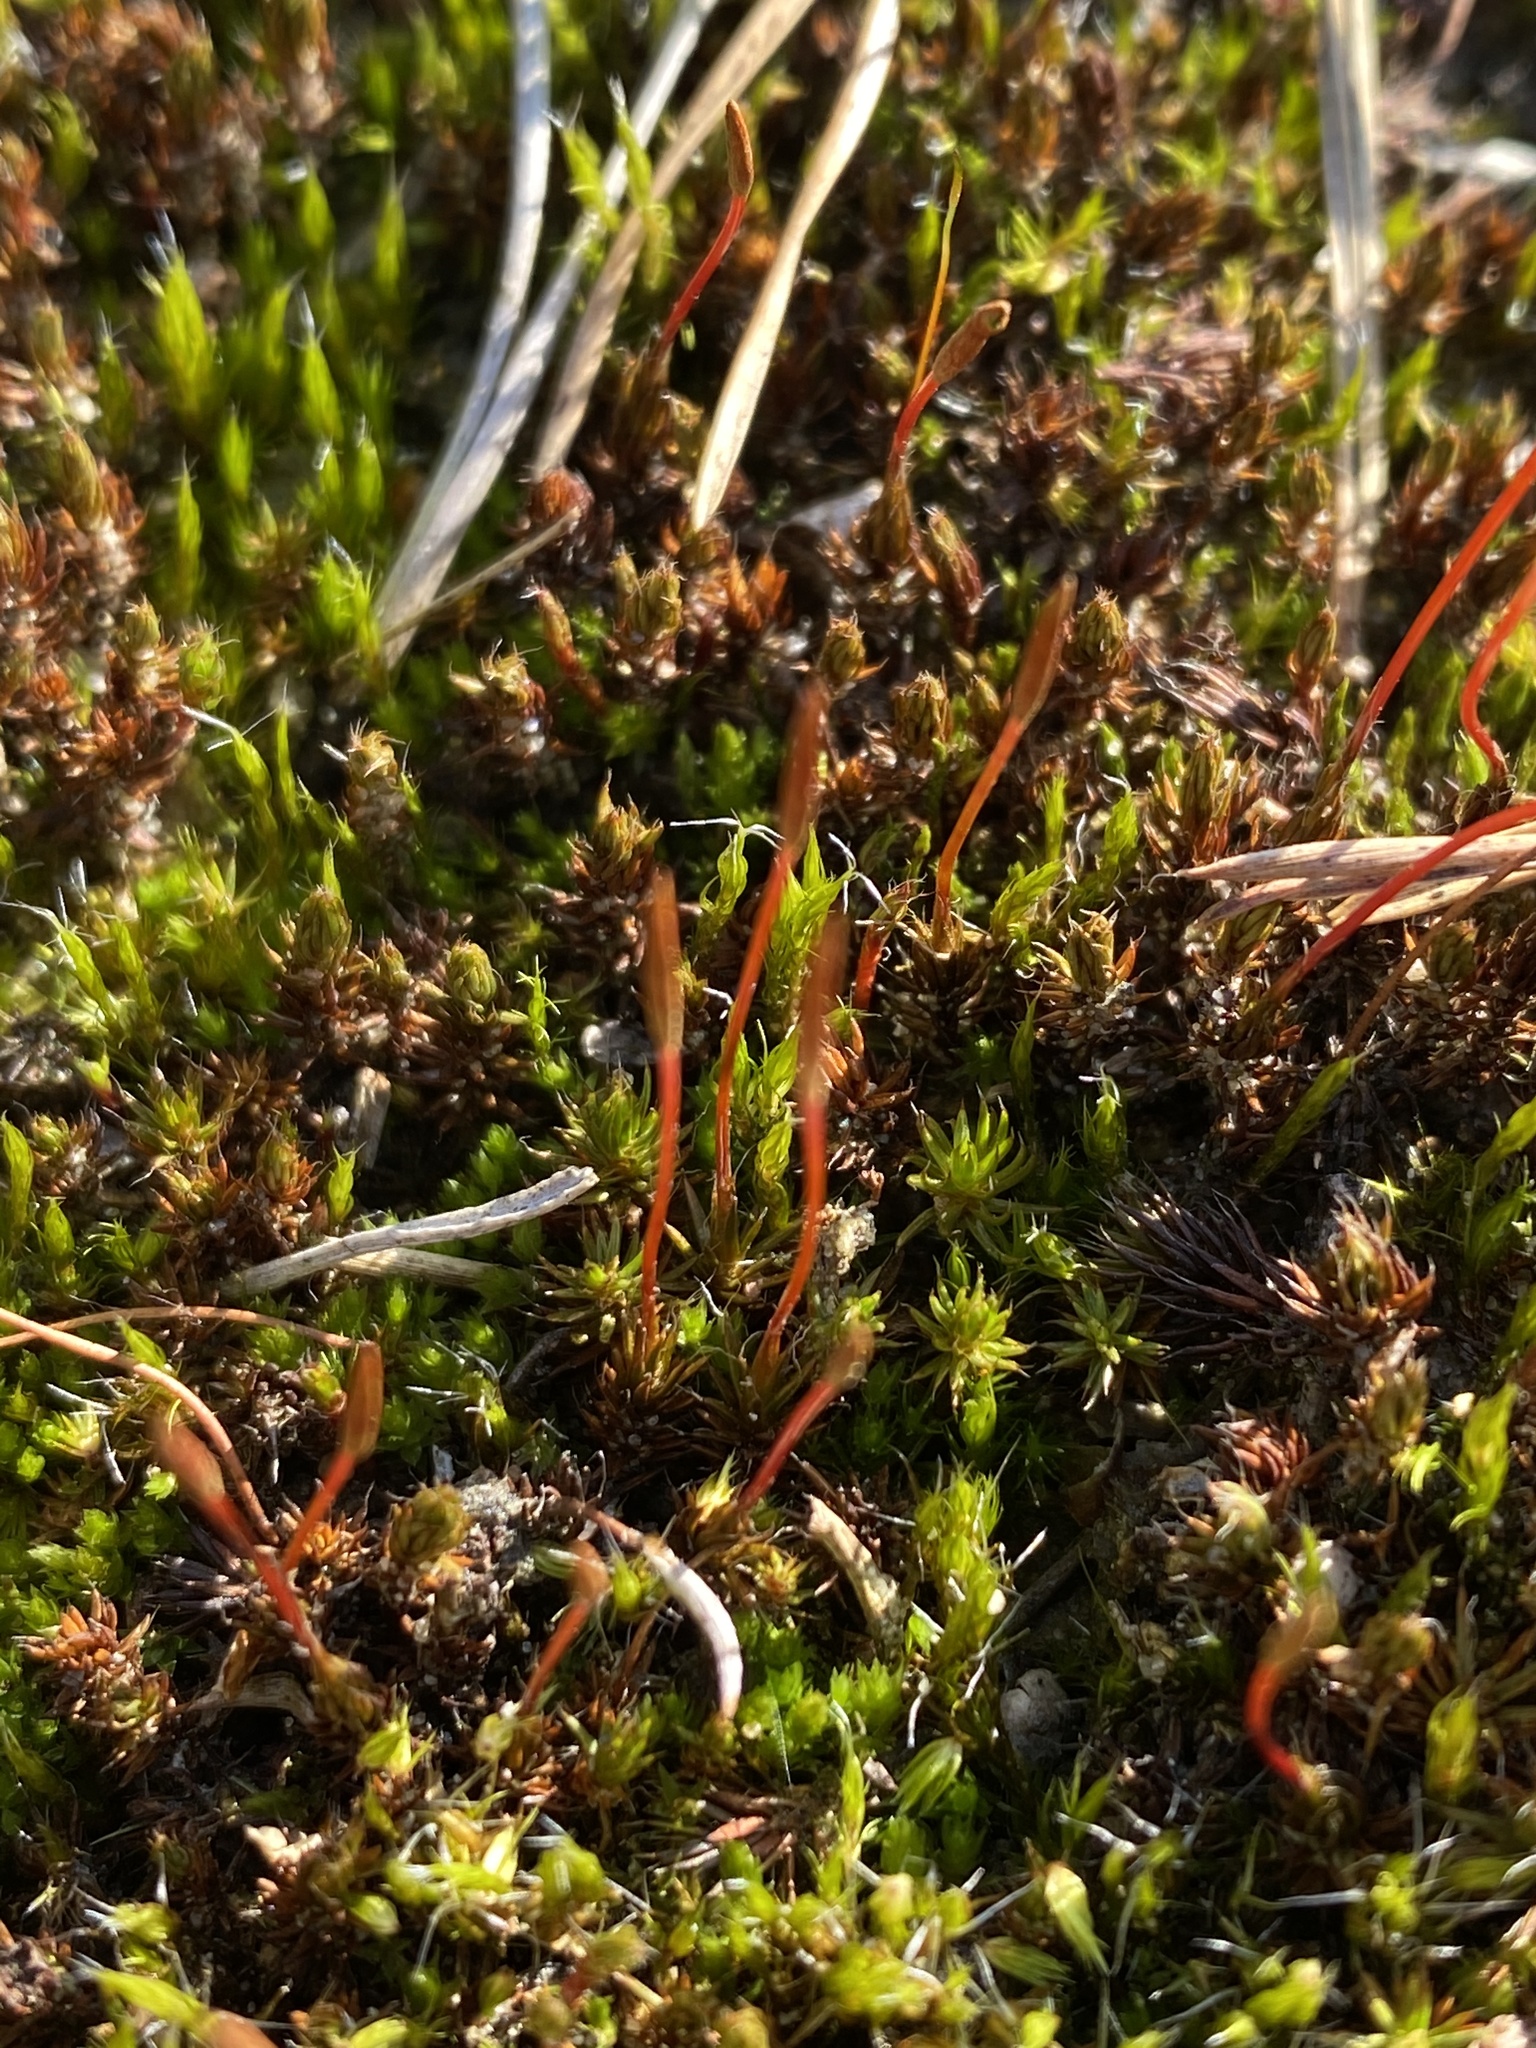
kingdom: Plantae
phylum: Bryophyta
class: Polytrichopsida
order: Polytrichales
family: Polytrichaceae
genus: Polytrichum
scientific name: Polytrichum piliferum
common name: Bristly haircap
